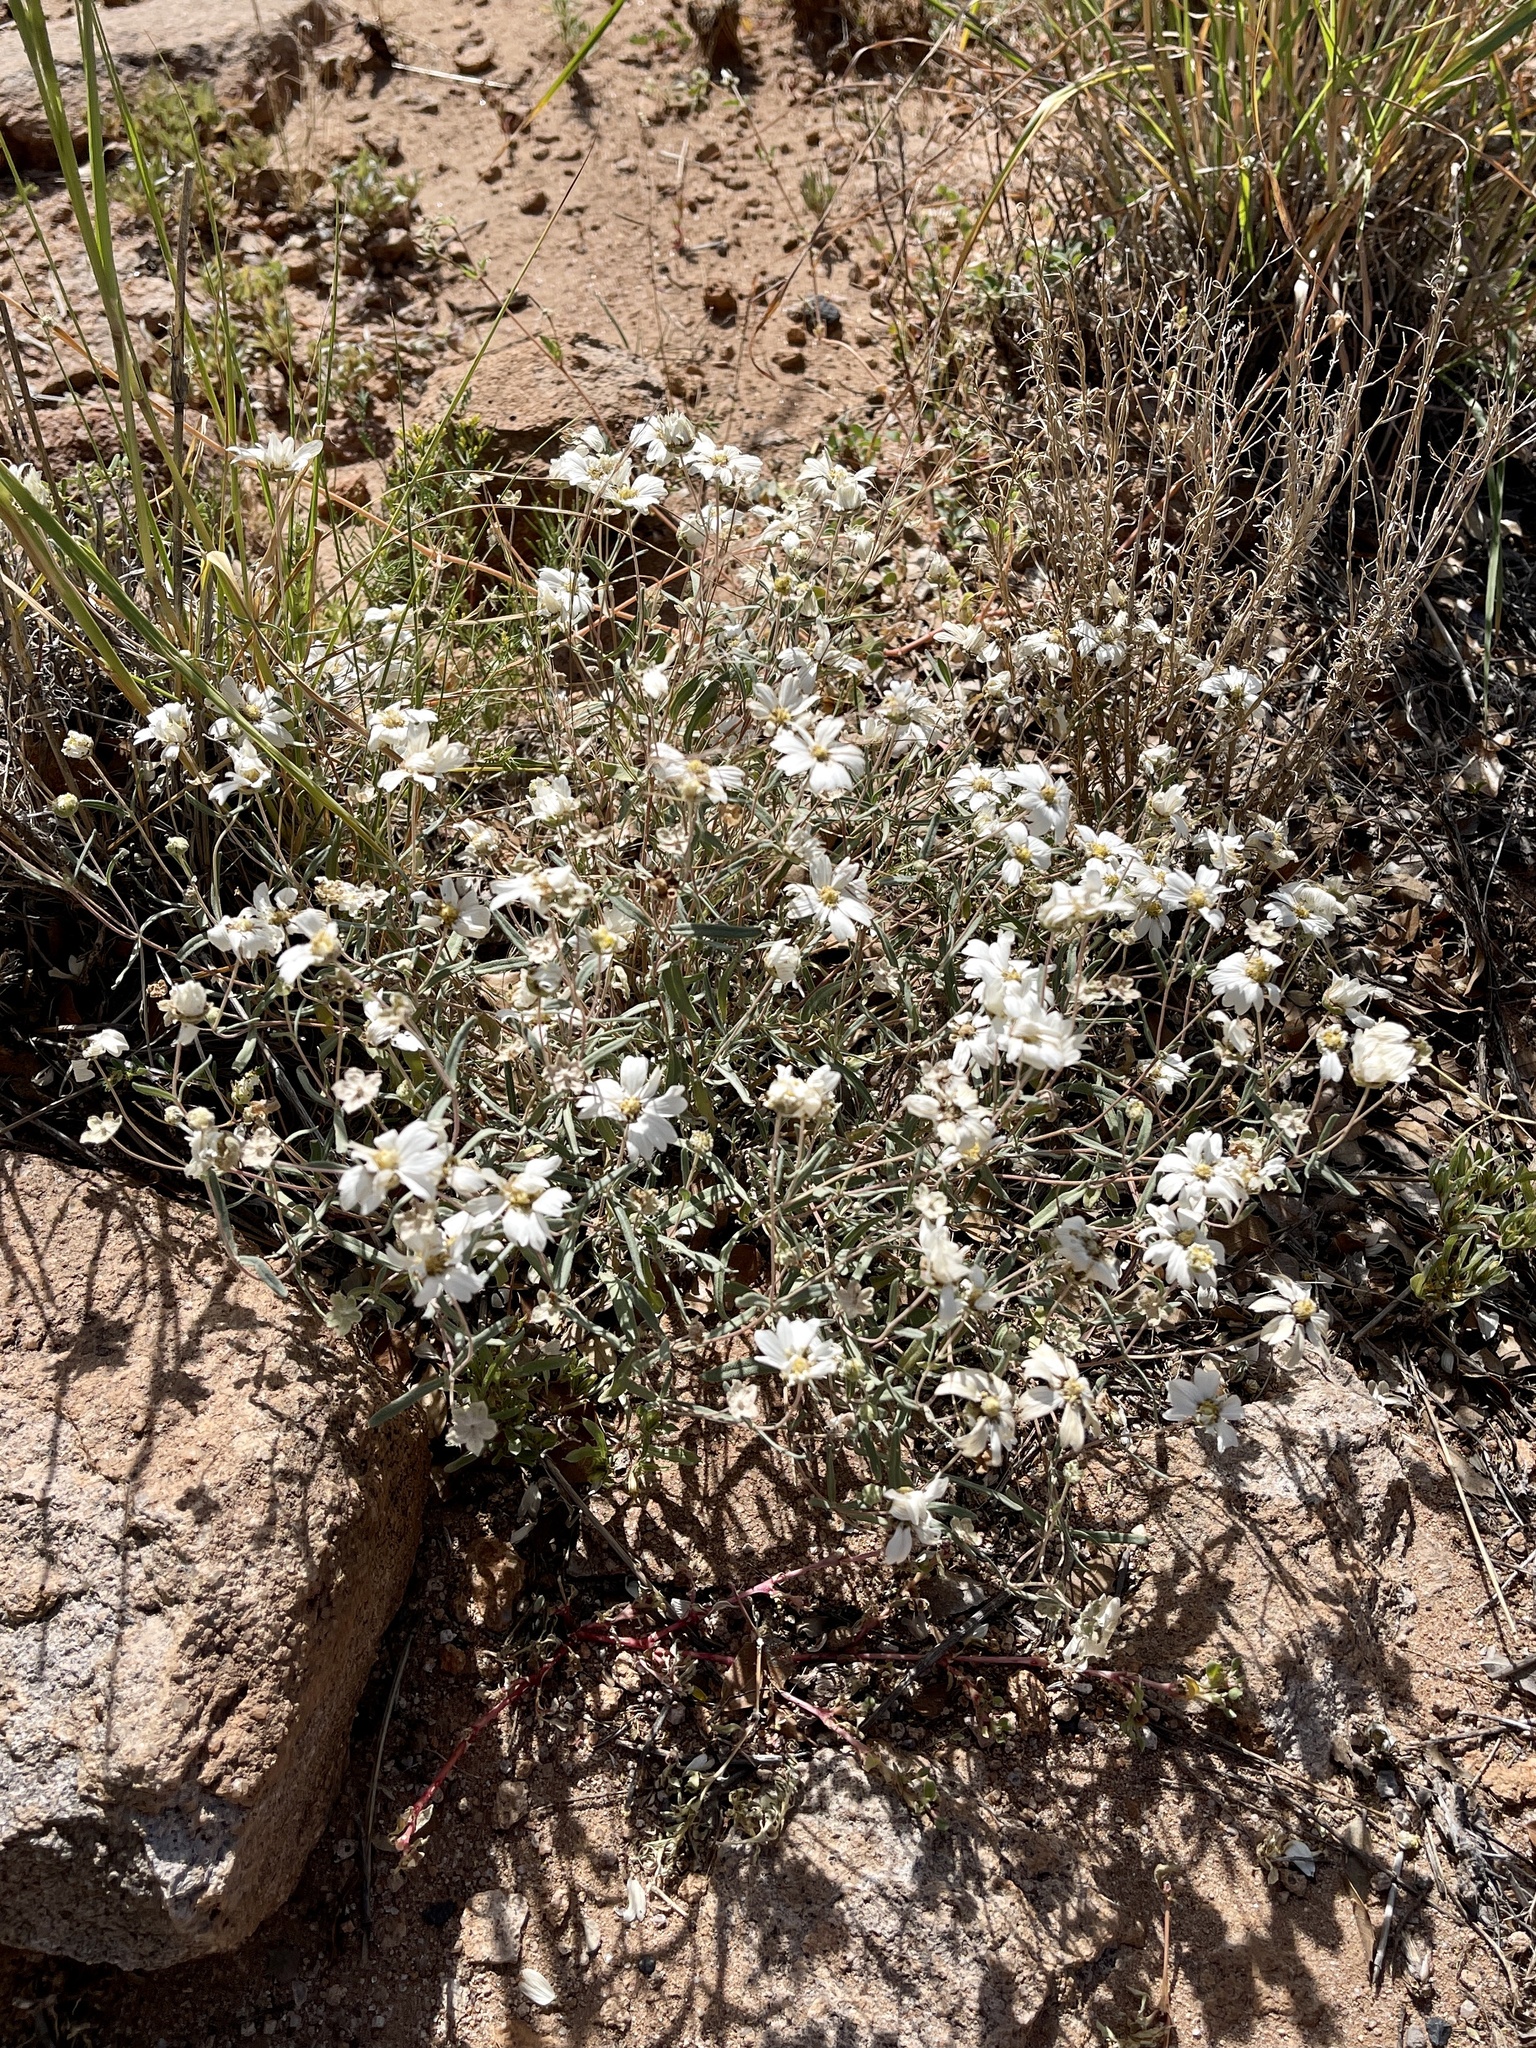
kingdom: Plantae
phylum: Tracheophyta
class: Magnoliopsida
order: Asterales
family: Asteraceae
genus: Melampodium
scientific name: Melampodium leucanthum
